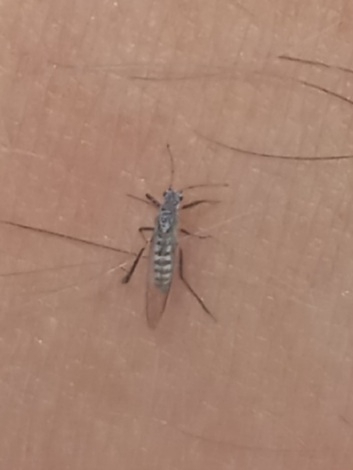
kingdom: Animalia
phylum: Arthropoda
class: Insecta
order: Hemiptera
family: Aphididae
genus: Eulachnus
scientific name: Eulachnus rileyi
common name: Active gray pine needle aphid
